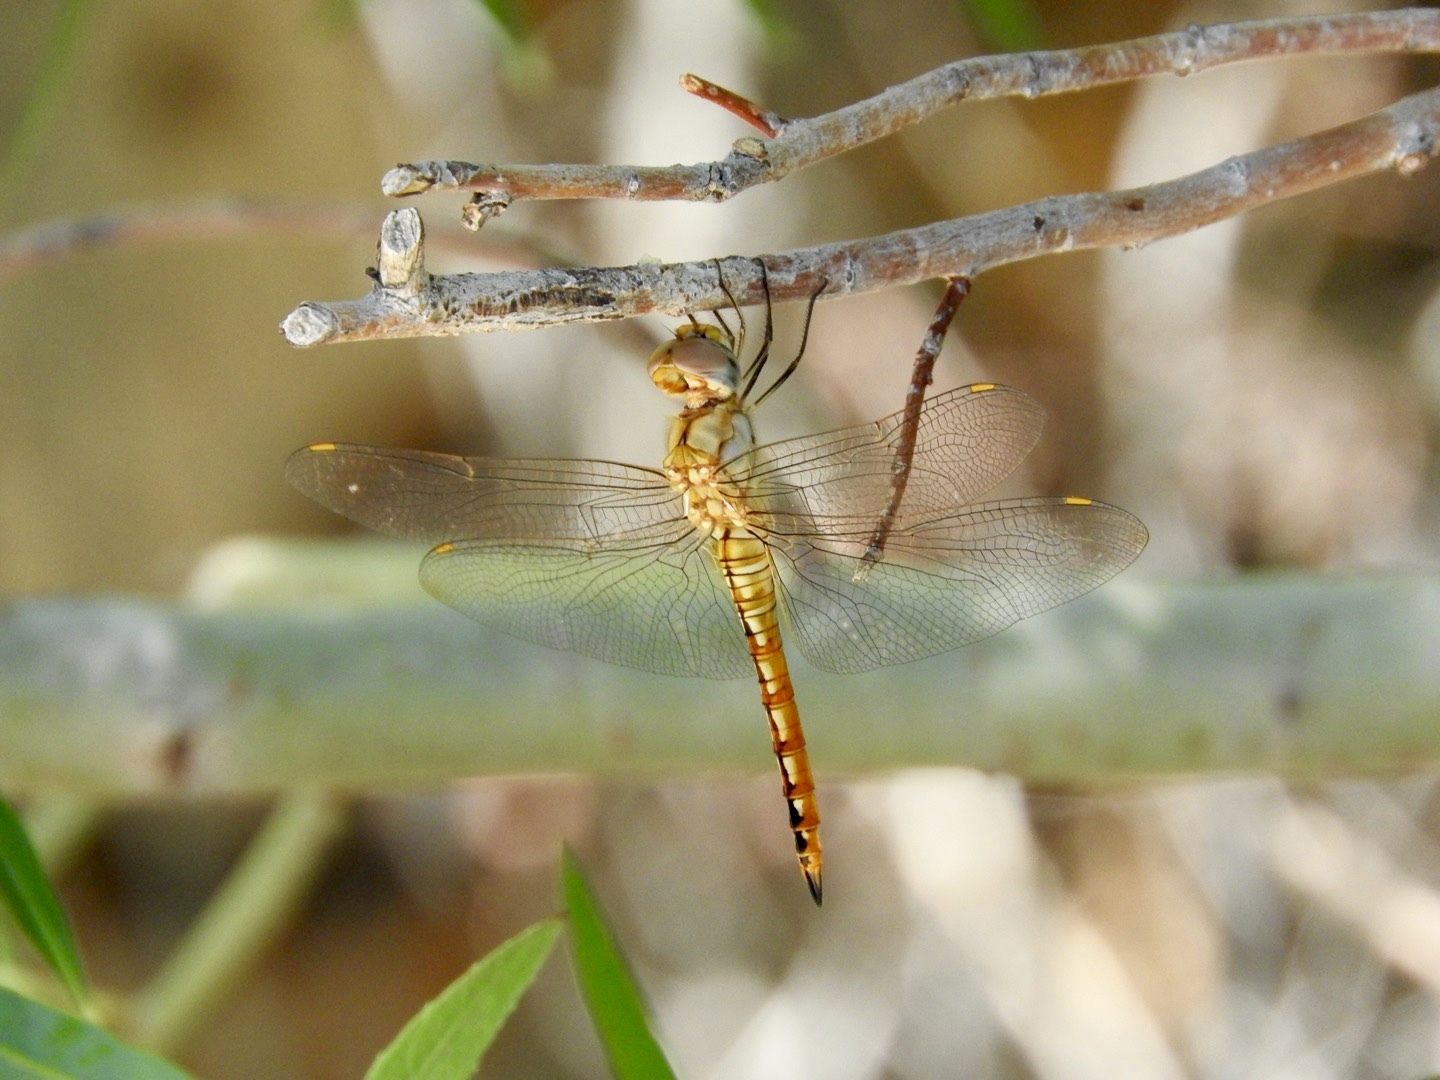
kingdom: Animalia
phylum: Arthropoda
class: Insecta
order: Odonata
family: Libellulidae
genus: Pantala
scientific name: Pantala flavescens
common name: Wandering glider
